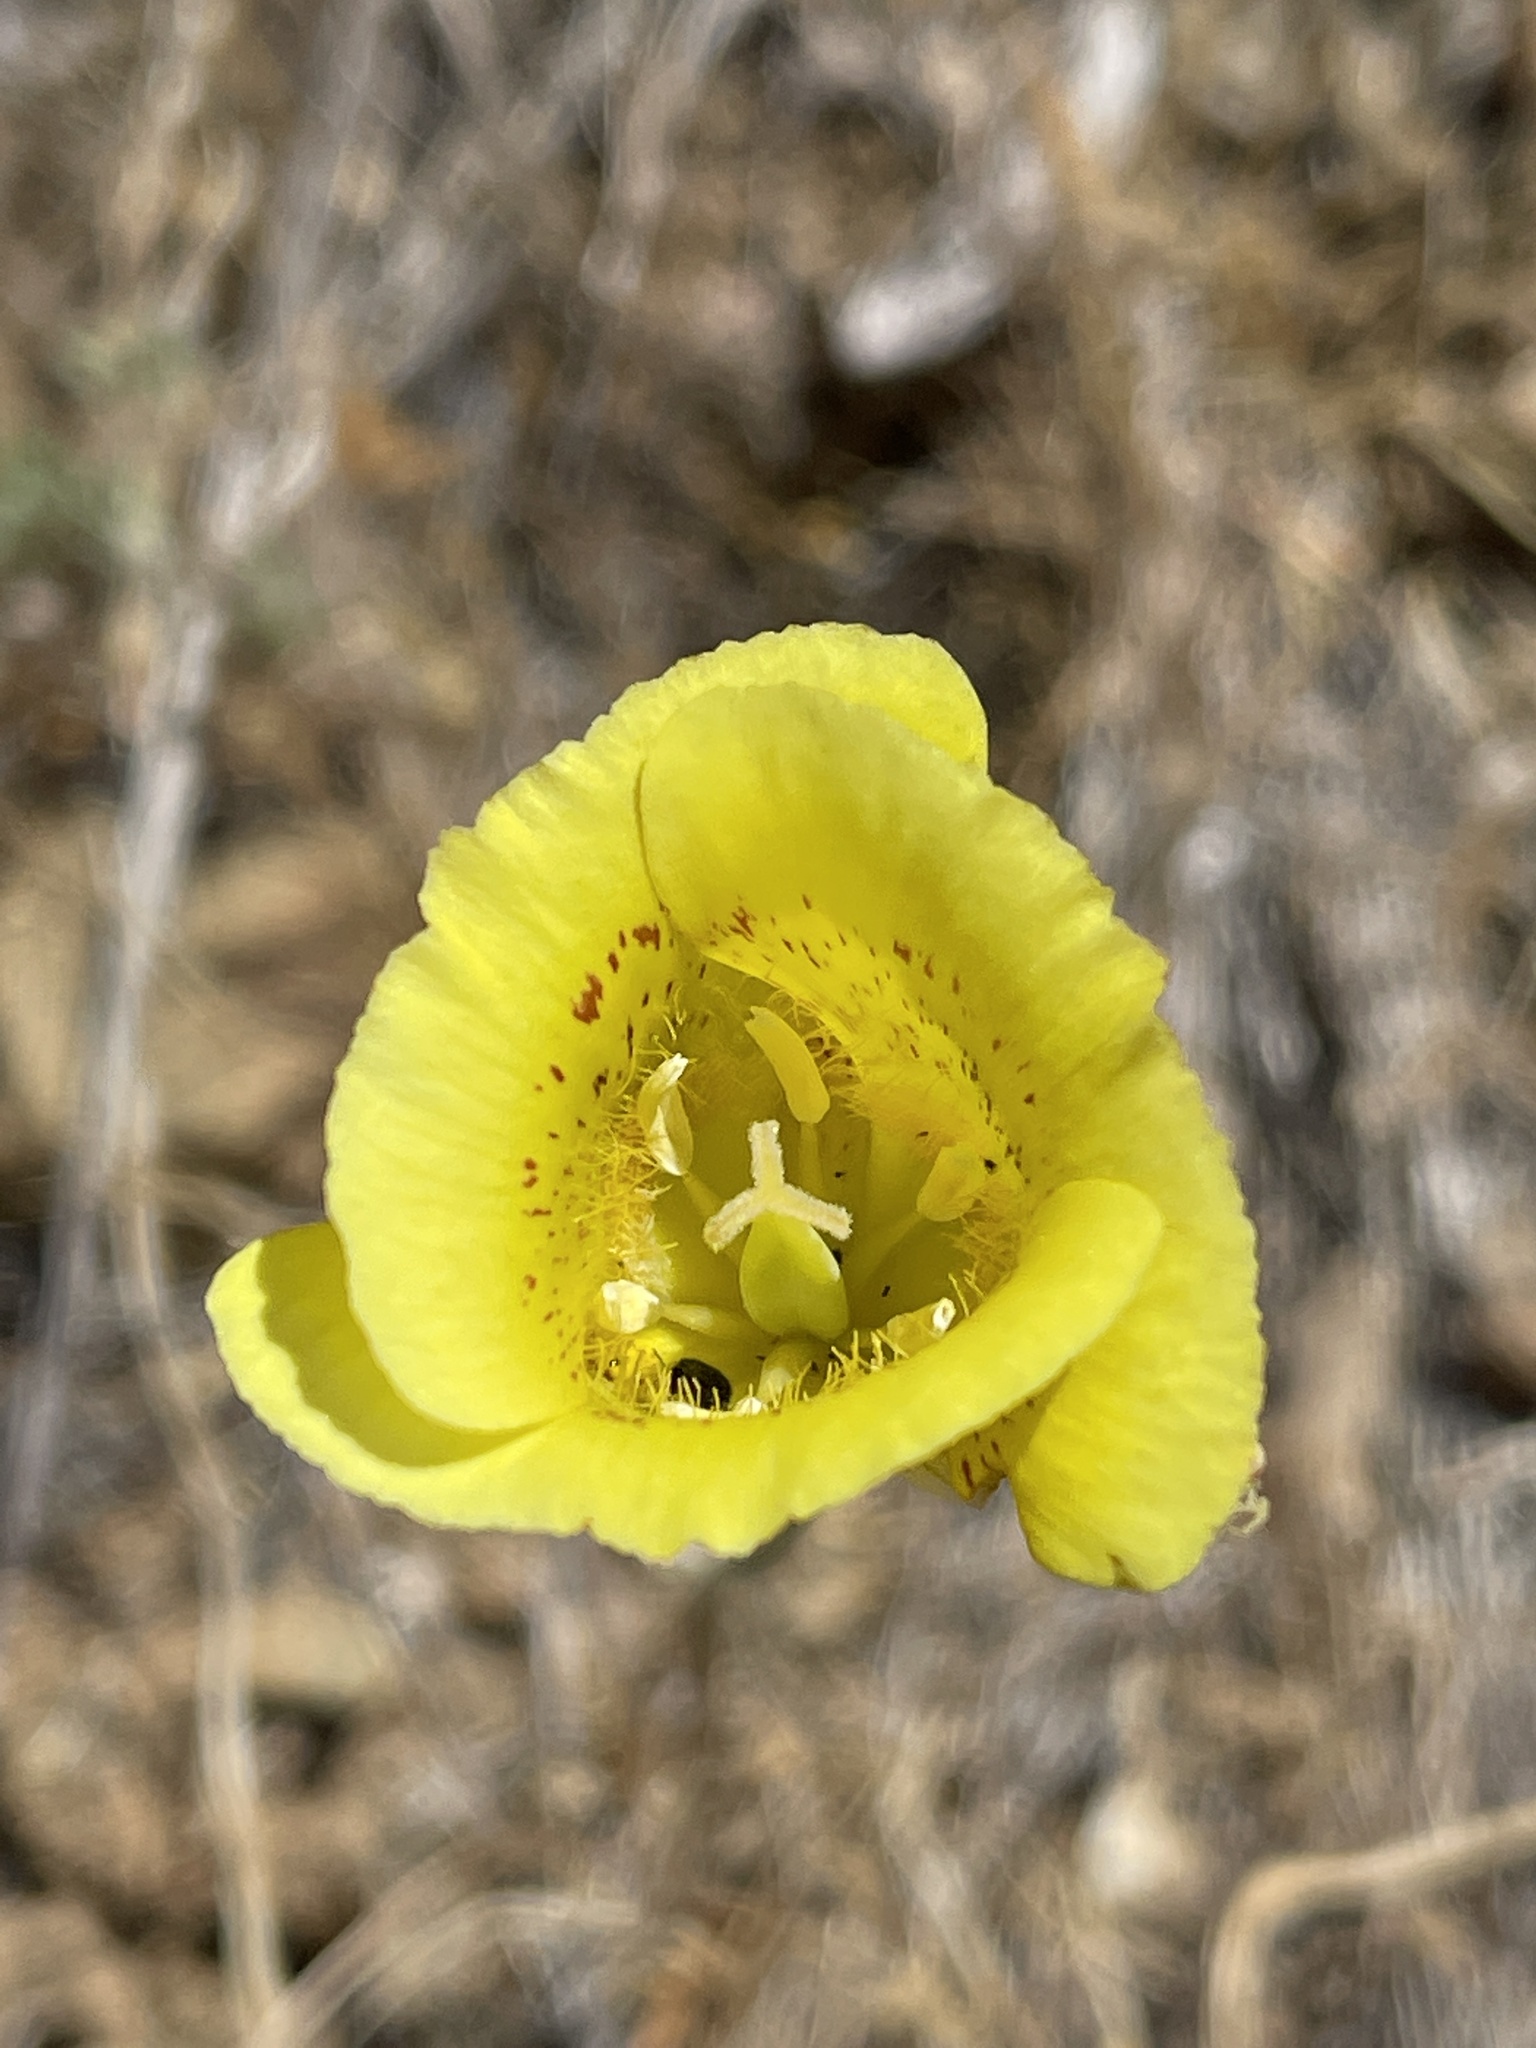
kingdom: Plantae
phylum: Tracheophyta
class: Liliopsida
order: Liliales
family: Liliaceae
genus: Calochortus
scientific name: Calochortus luteus
